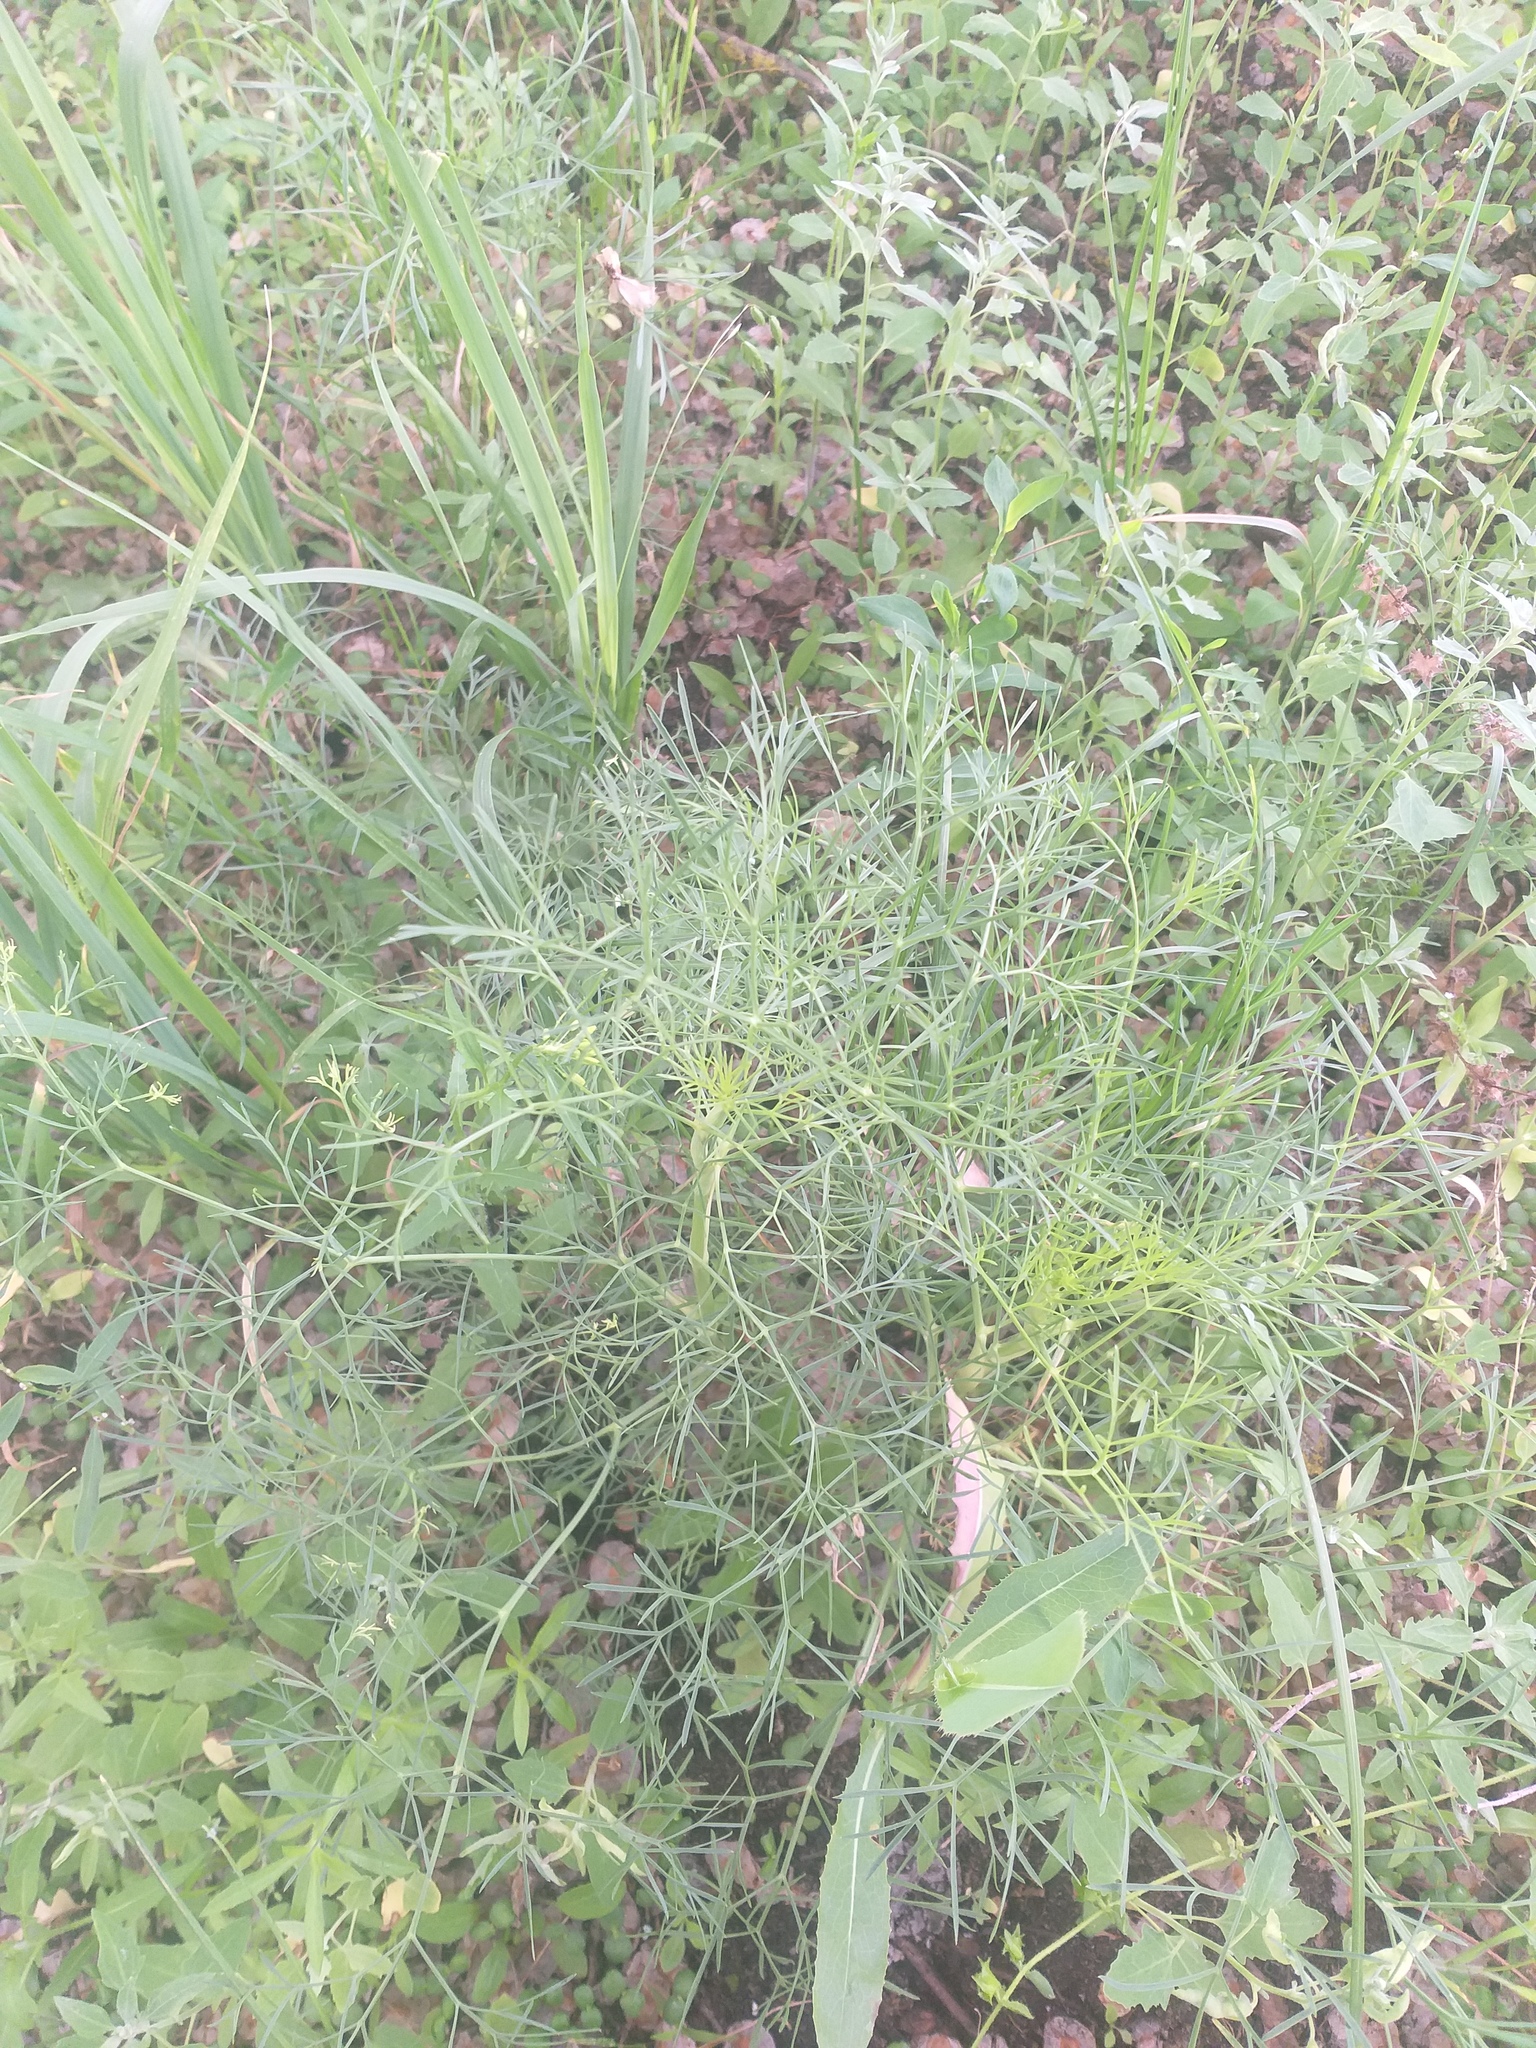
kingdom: Plantae
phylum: Tracheophyta
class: Magnoliopsida
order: Apiales
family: Apiaceae
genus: Seseli
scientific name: Seseli arenarium
